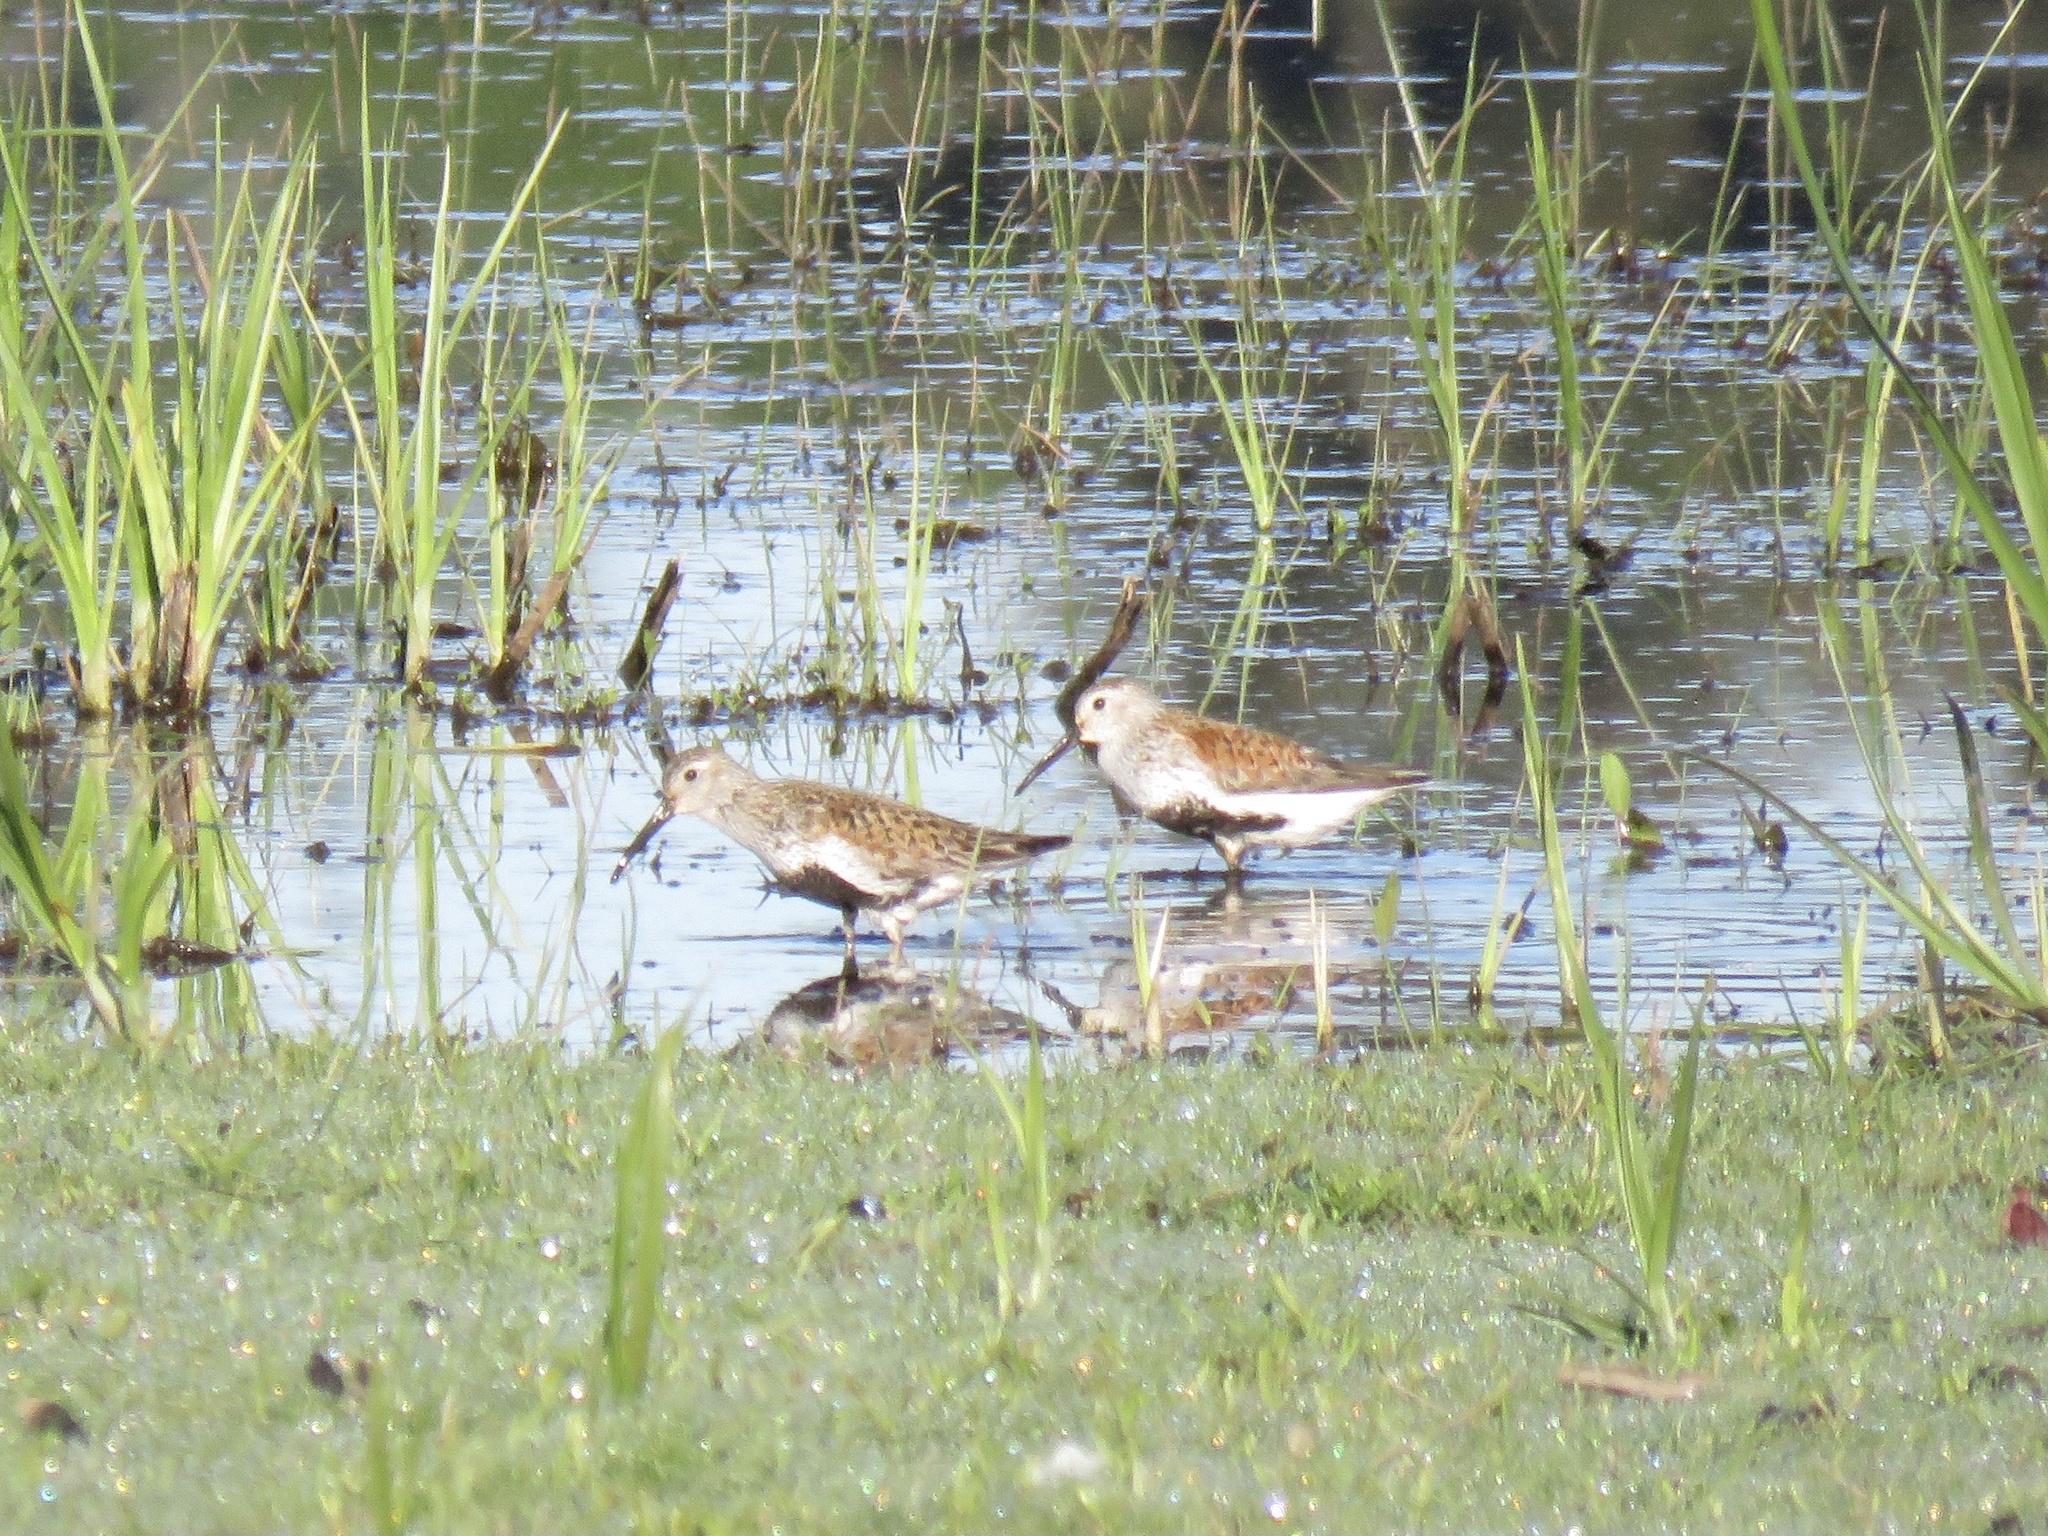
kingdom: Animalia
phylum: Chordata
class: Aves
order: Charadriiformes
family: Scolopacidae
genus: Calidris
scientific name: Calidris alpina
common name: Dunlin
